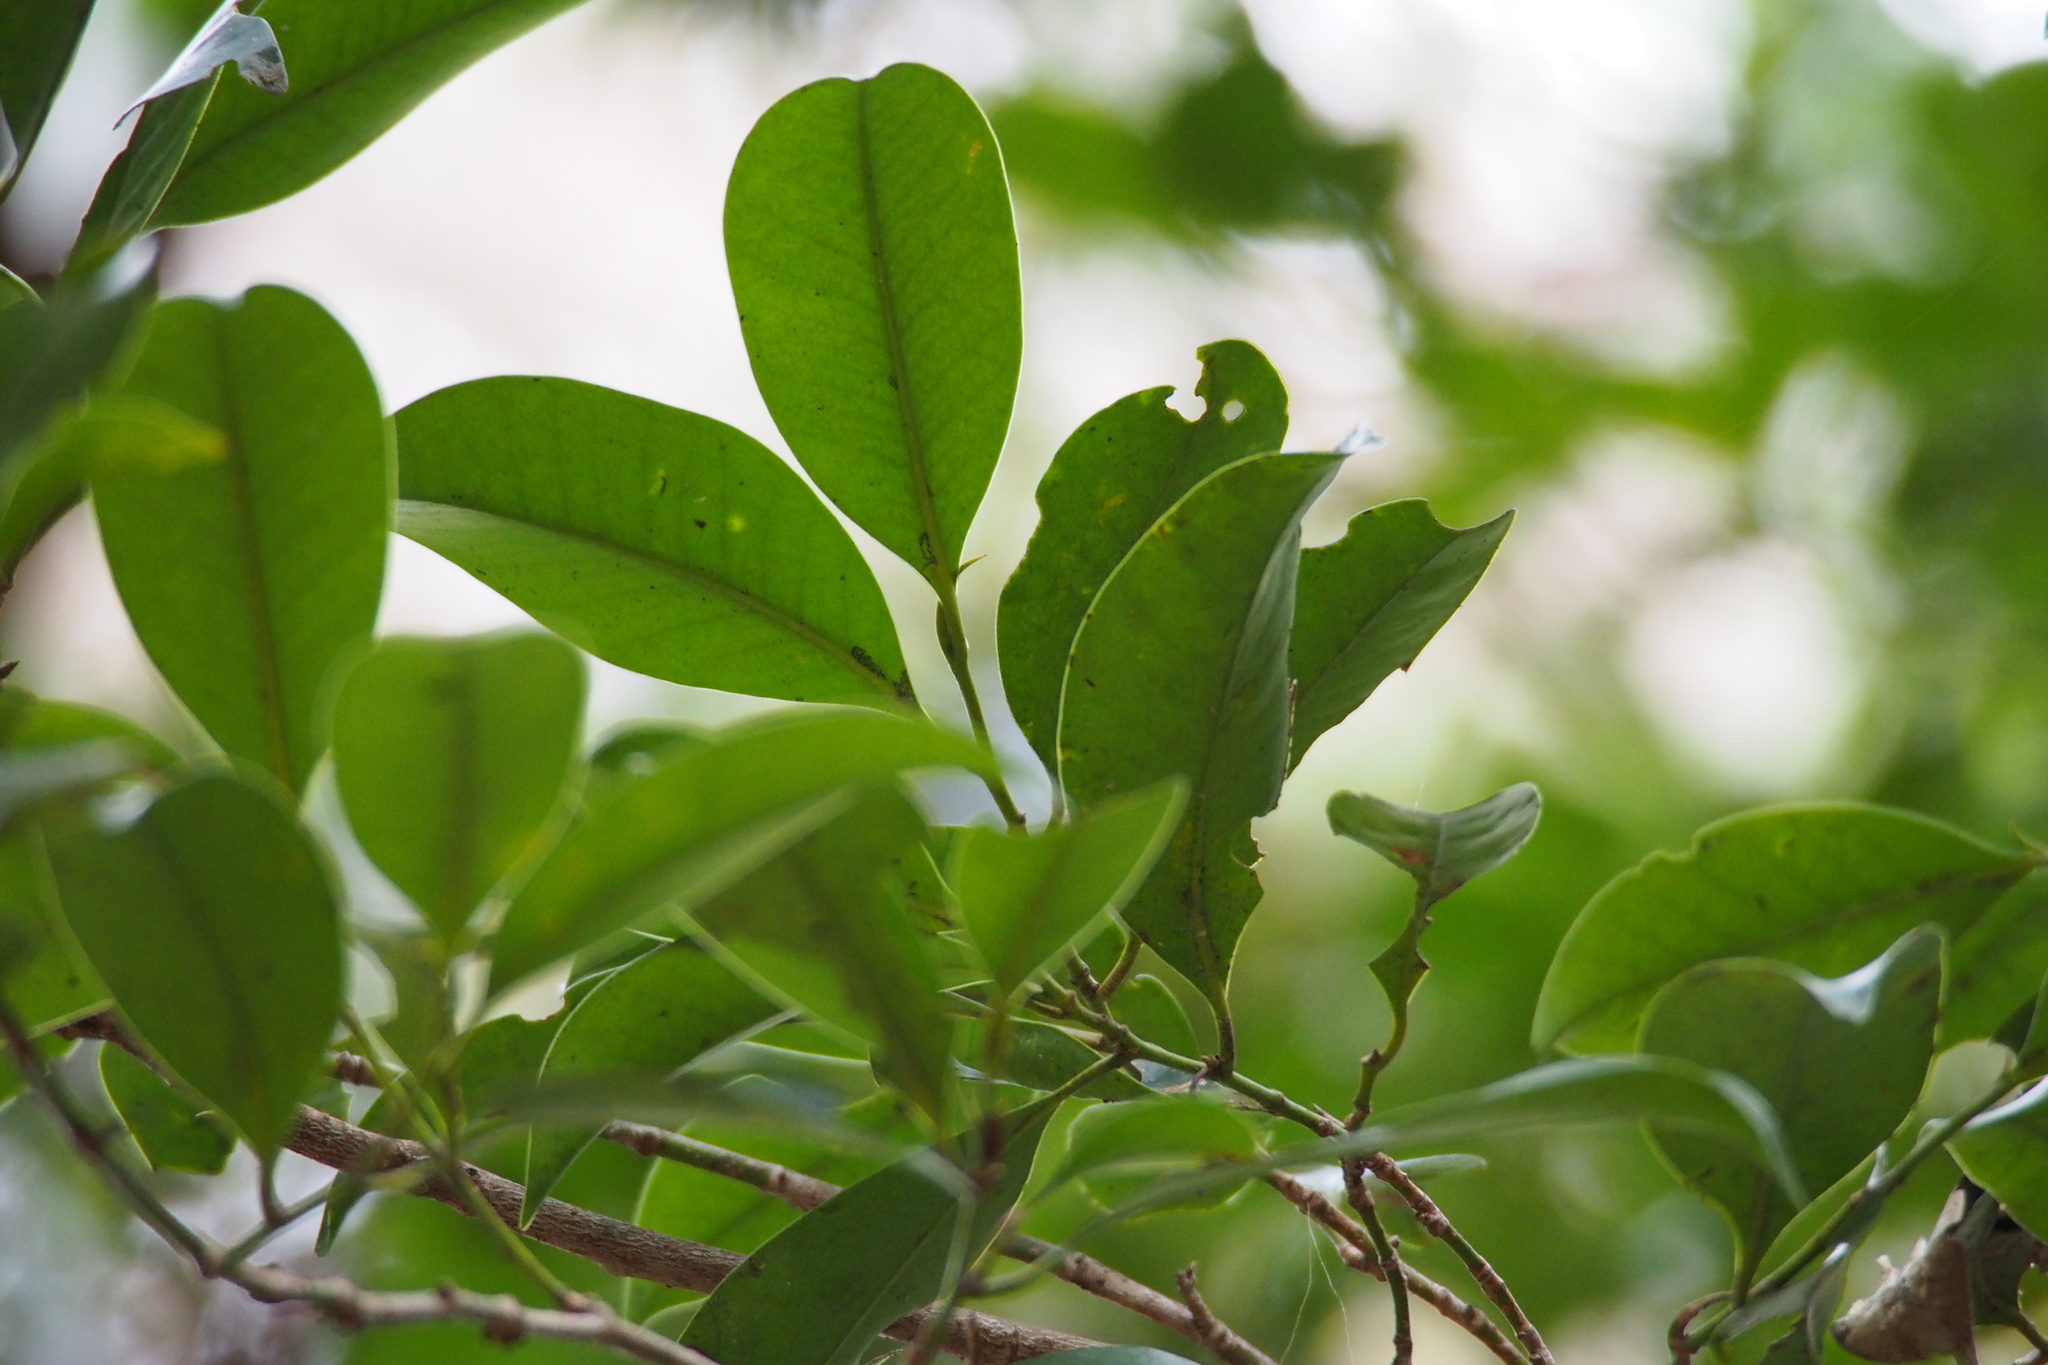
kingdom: Plantae
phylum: Tracheophyta
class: Magnoliopsida
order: Ericales
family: Pentaphylacaceae
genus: Cleyera
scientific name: Cleyera japonica
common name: Sakaki
